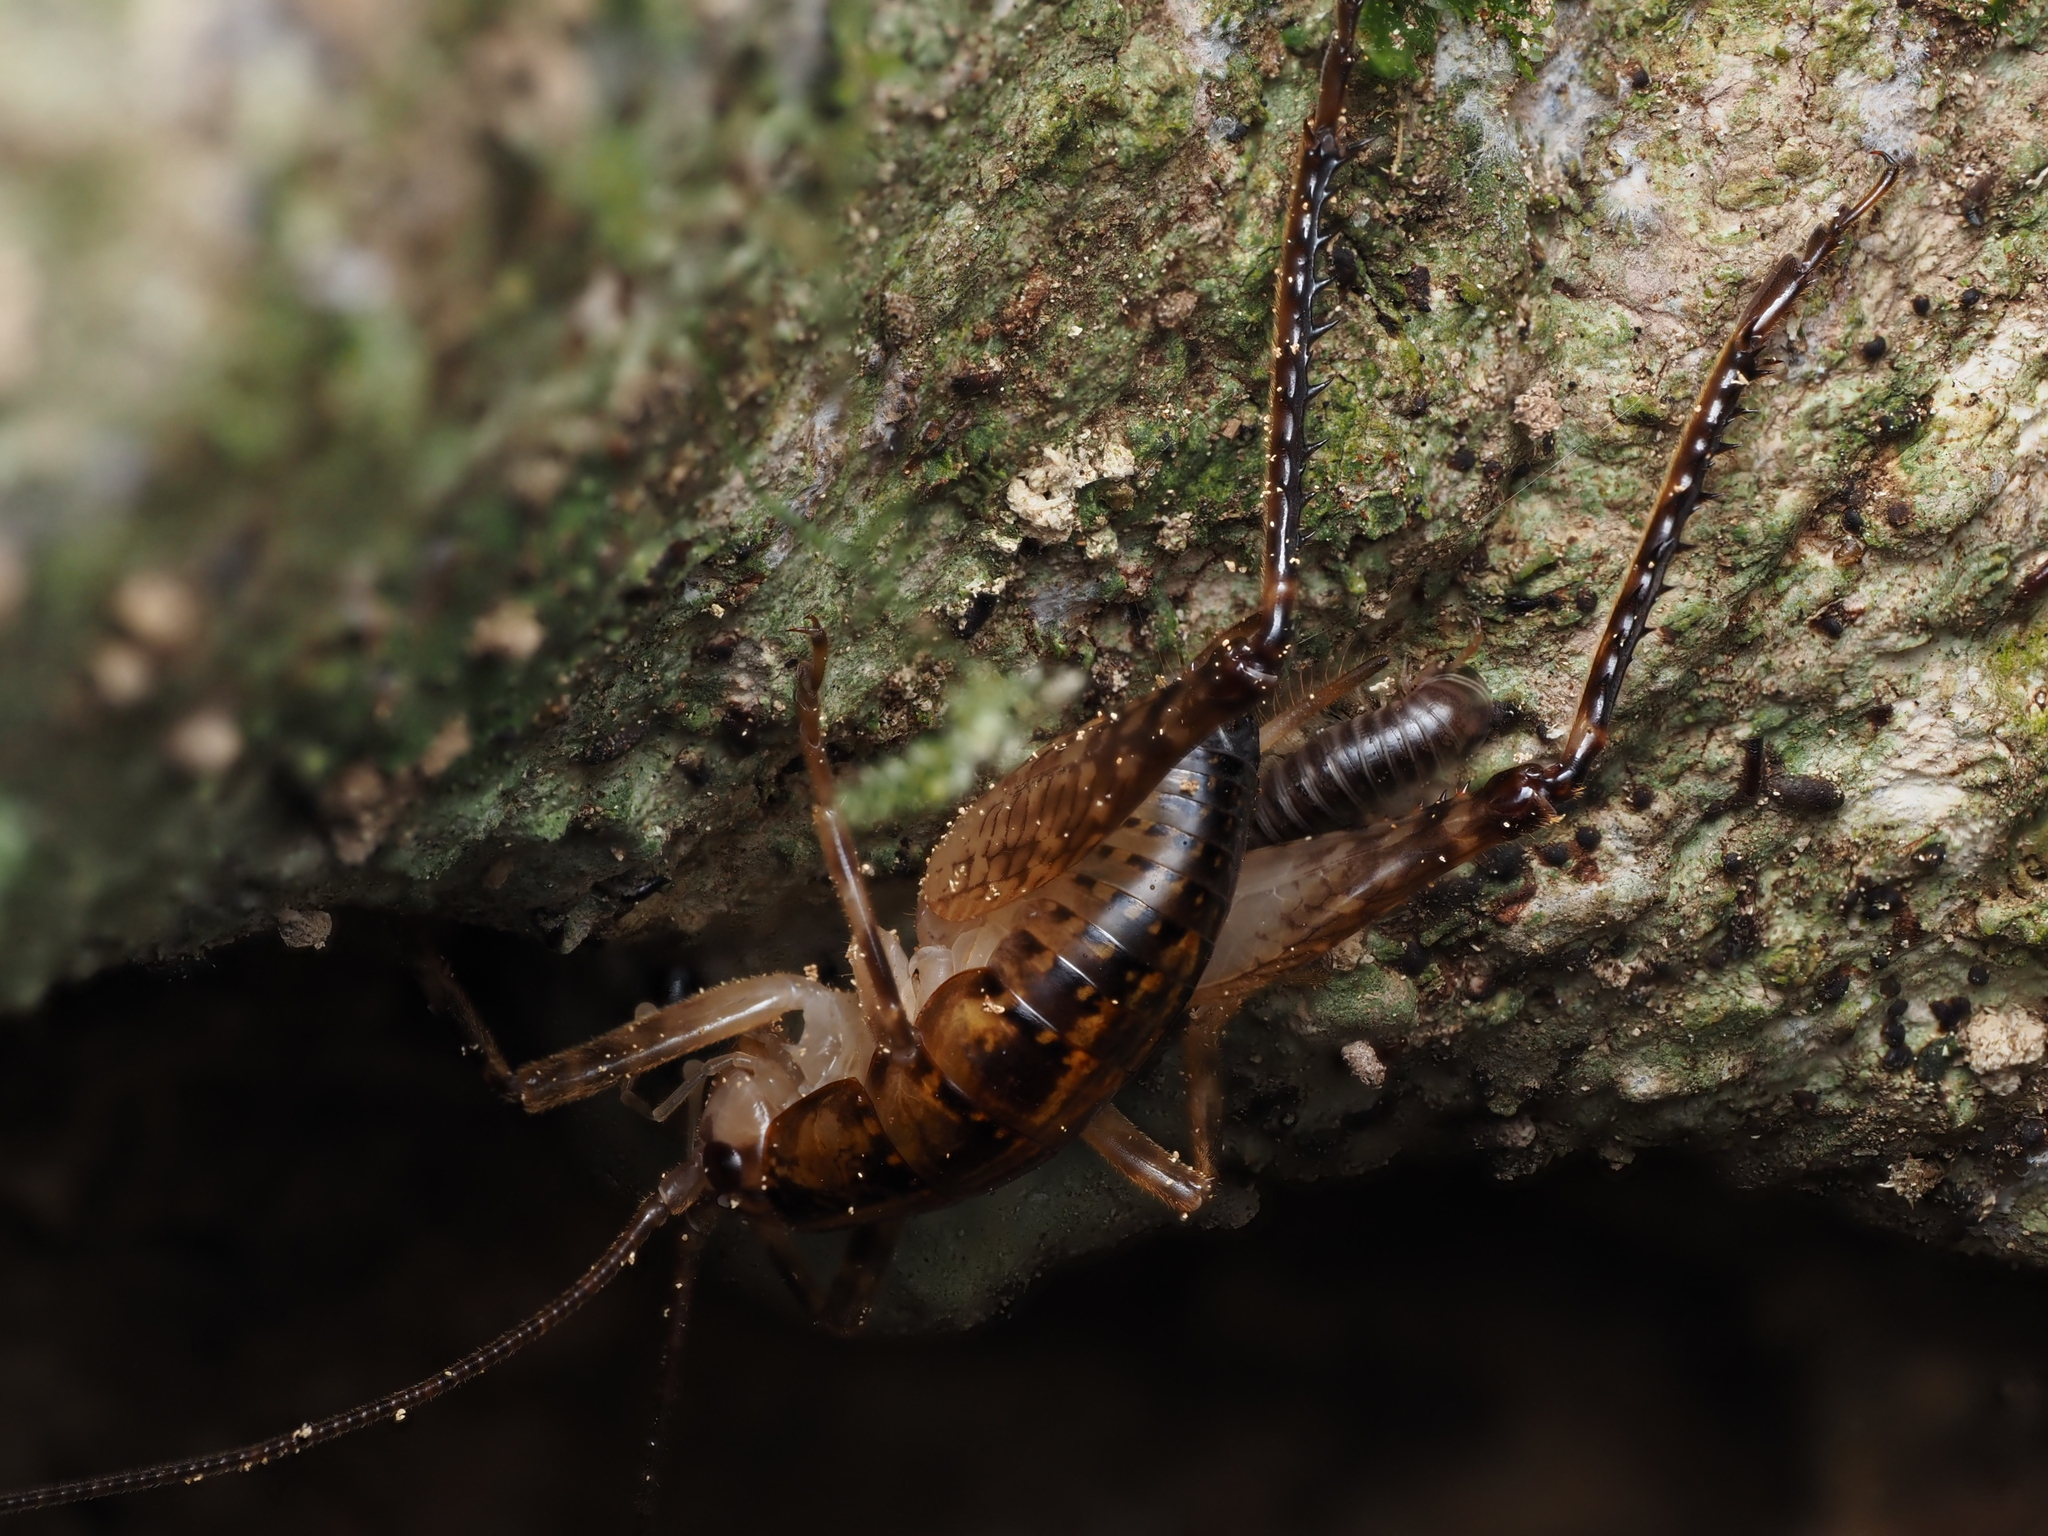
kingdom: Animalia
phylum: Arthropoda
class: Insecta
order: Orthoptera
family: Rhaphidophoridae
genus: Talitropsis
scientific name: Talitropsis sedilloti
